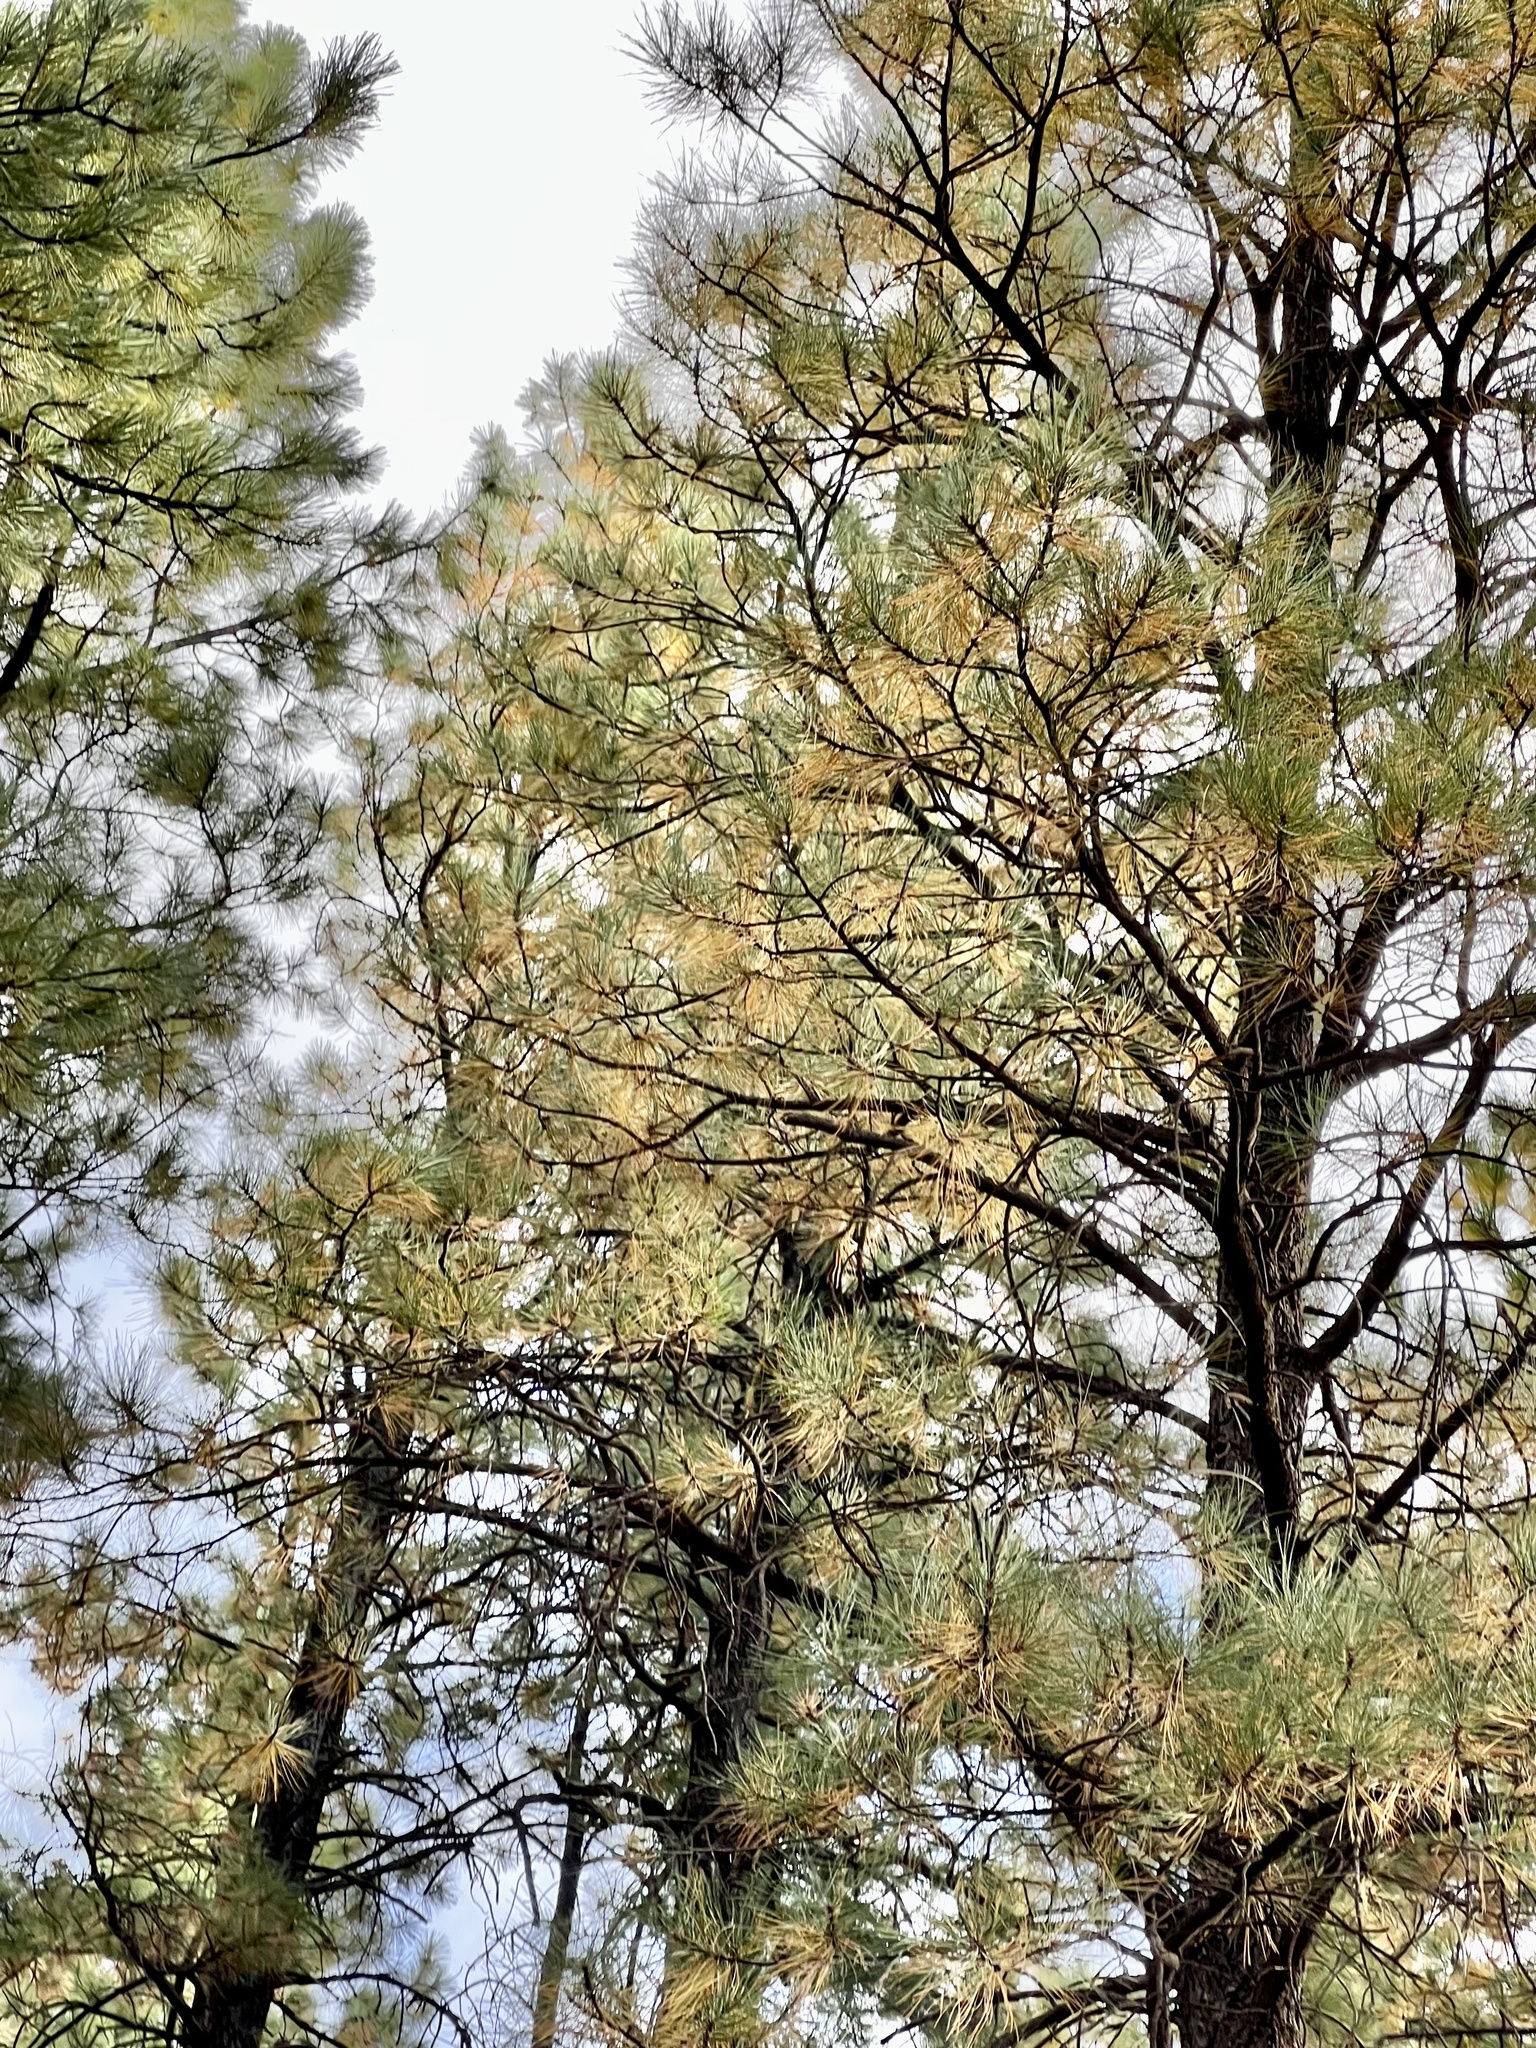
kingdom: Plantae
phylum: Tracheophyta
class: Pinopsida
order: Pinales
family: Pinaceae
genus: Pinus
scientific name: Pinus ponderosa
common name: Western yellow-pine
